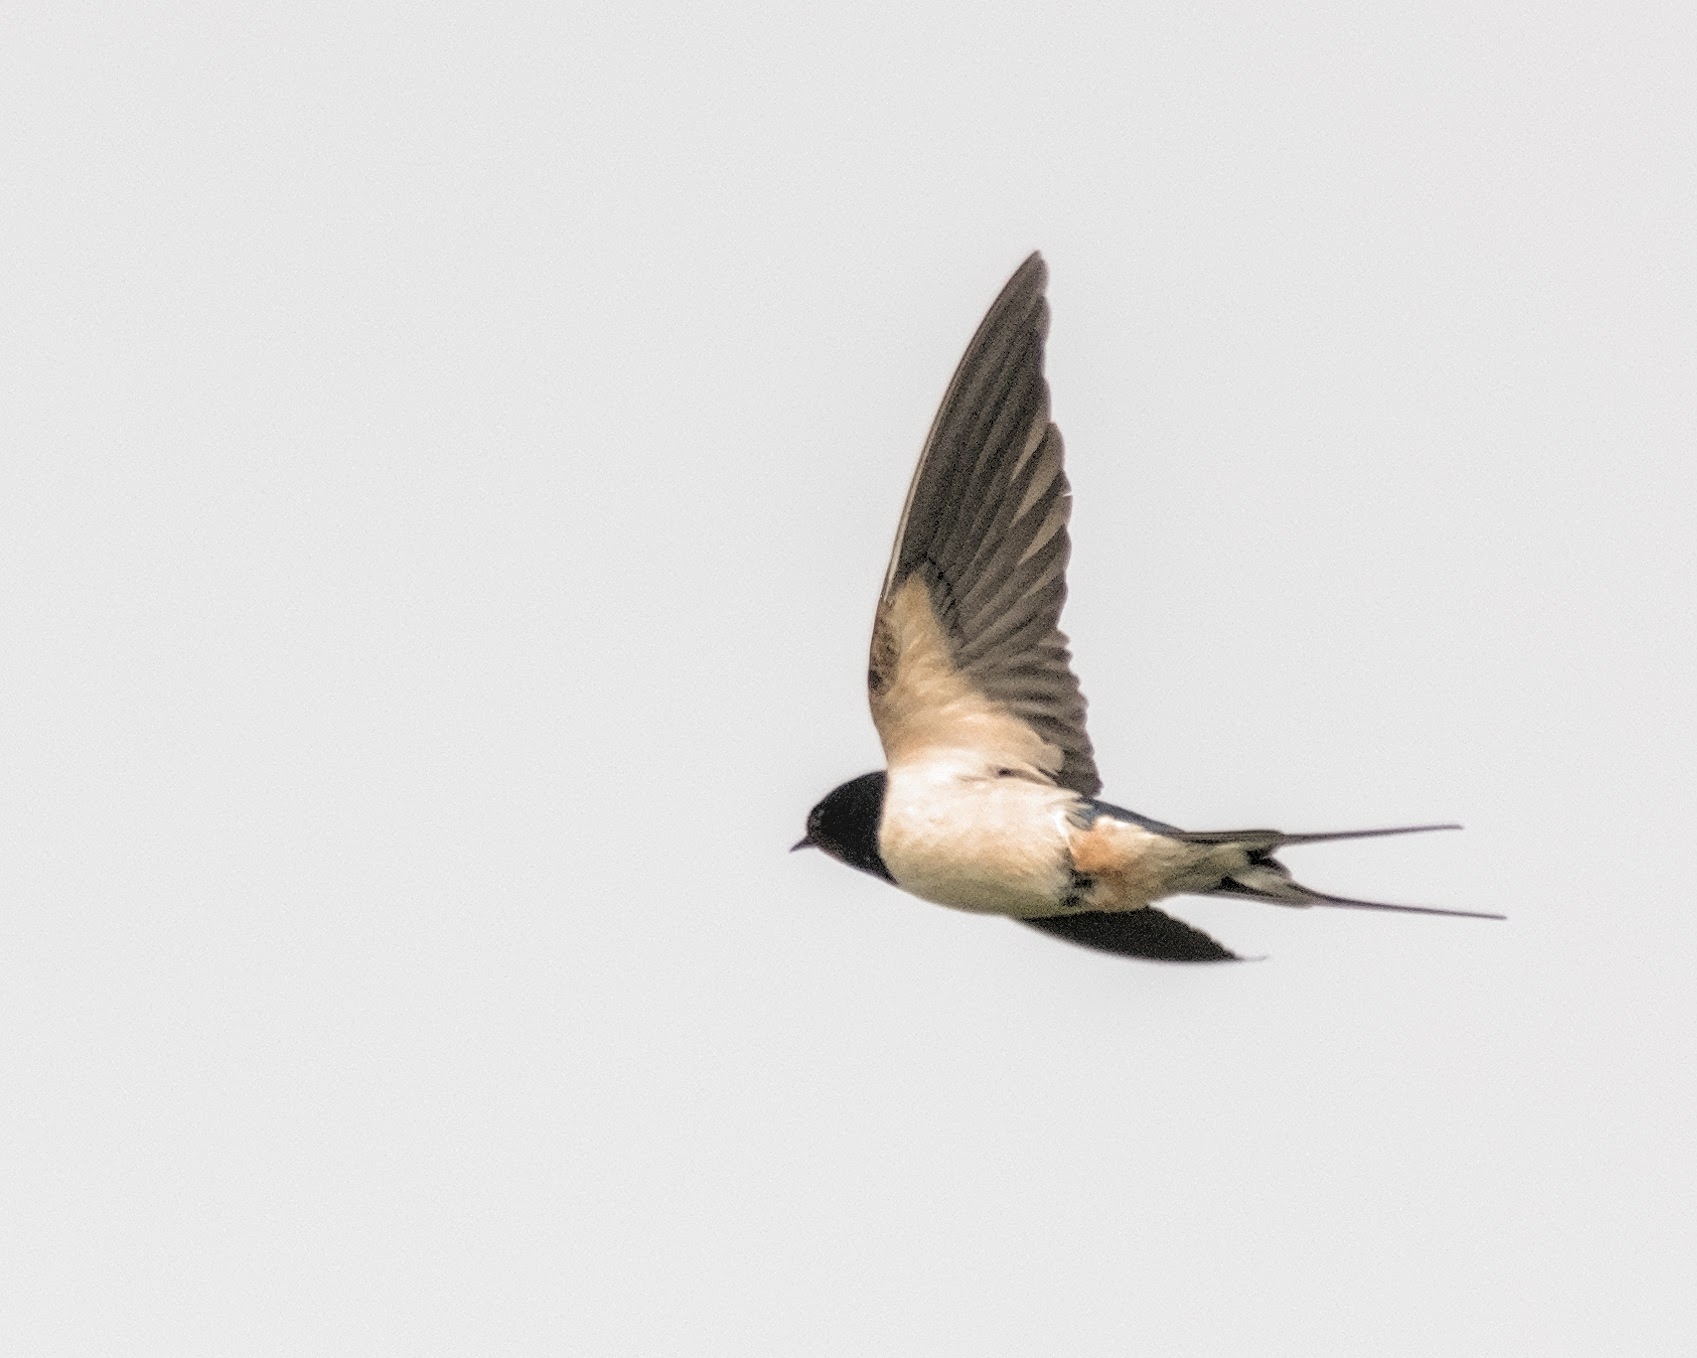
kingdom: Animalia
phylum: Chordata
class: Aves
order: Passeriformes
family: Hirundinidae
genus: Hirundo
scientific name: Hirundo rustica
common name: Barn swallow
